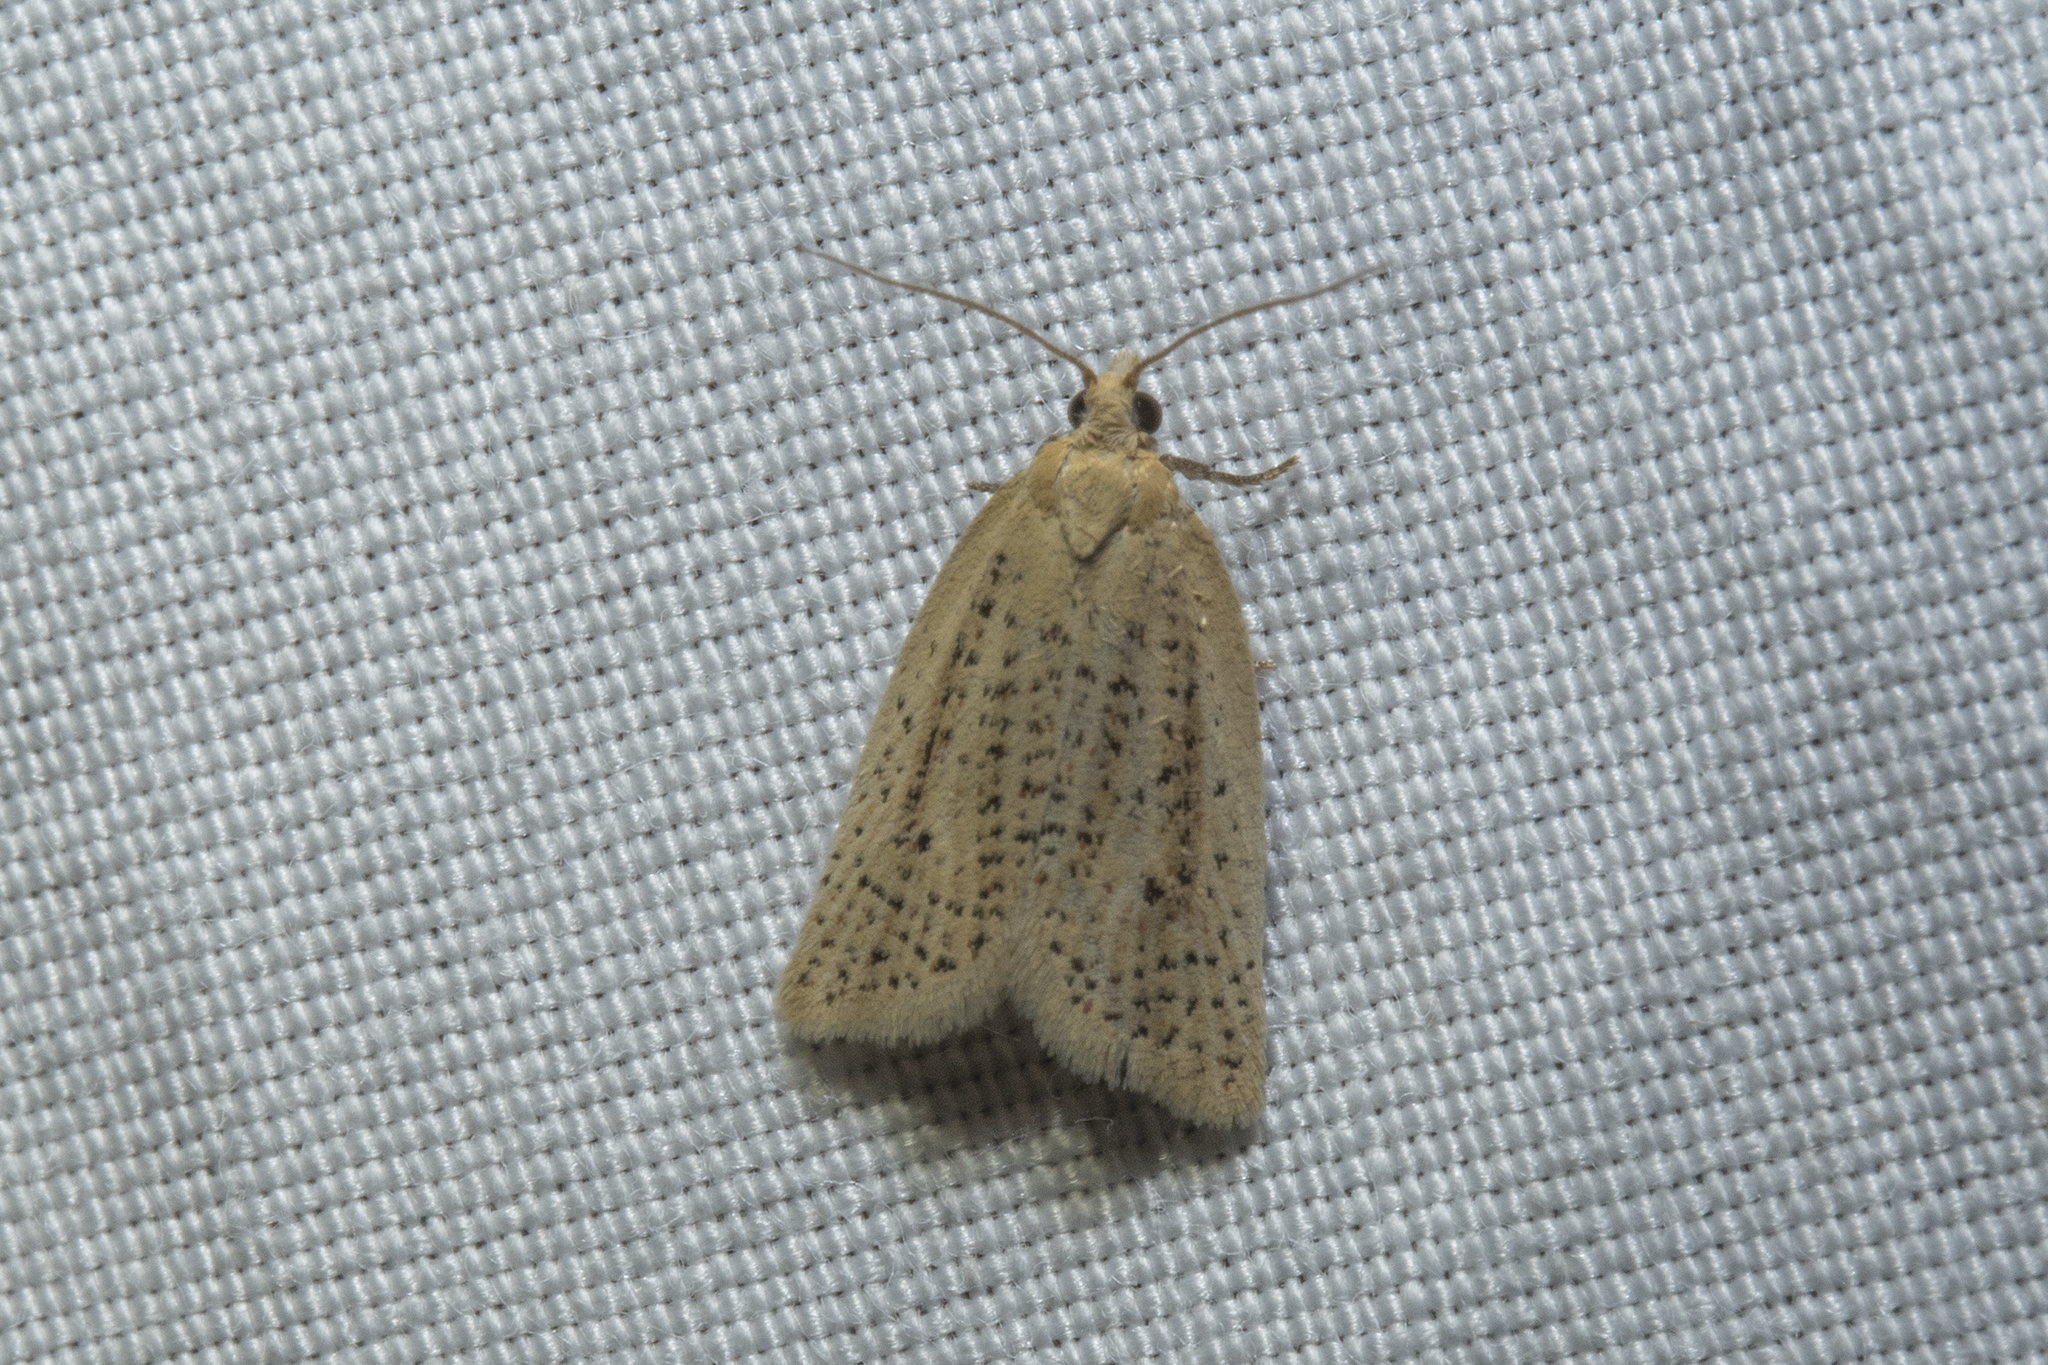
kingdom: Animalia
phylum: Arthropoda
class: Insecta
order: Lepidoptera
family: Tortricidae
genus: Clepsis
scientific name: Clepsis
